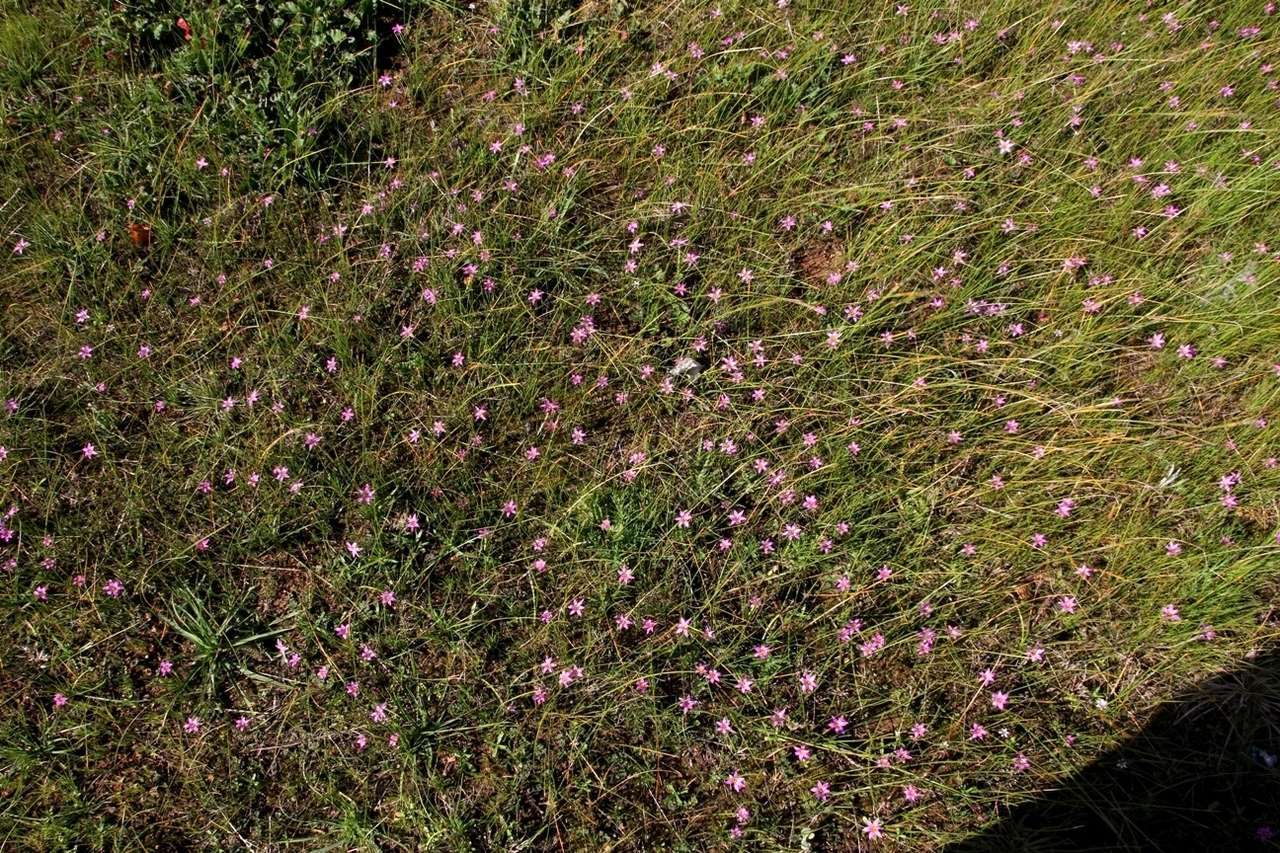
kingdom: Plantae
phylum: Tracheophyta
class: Liliopsida
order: Asparagales
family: Iridaceae
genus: Romulea
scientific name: Romulea rosea
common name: Oniongrass
